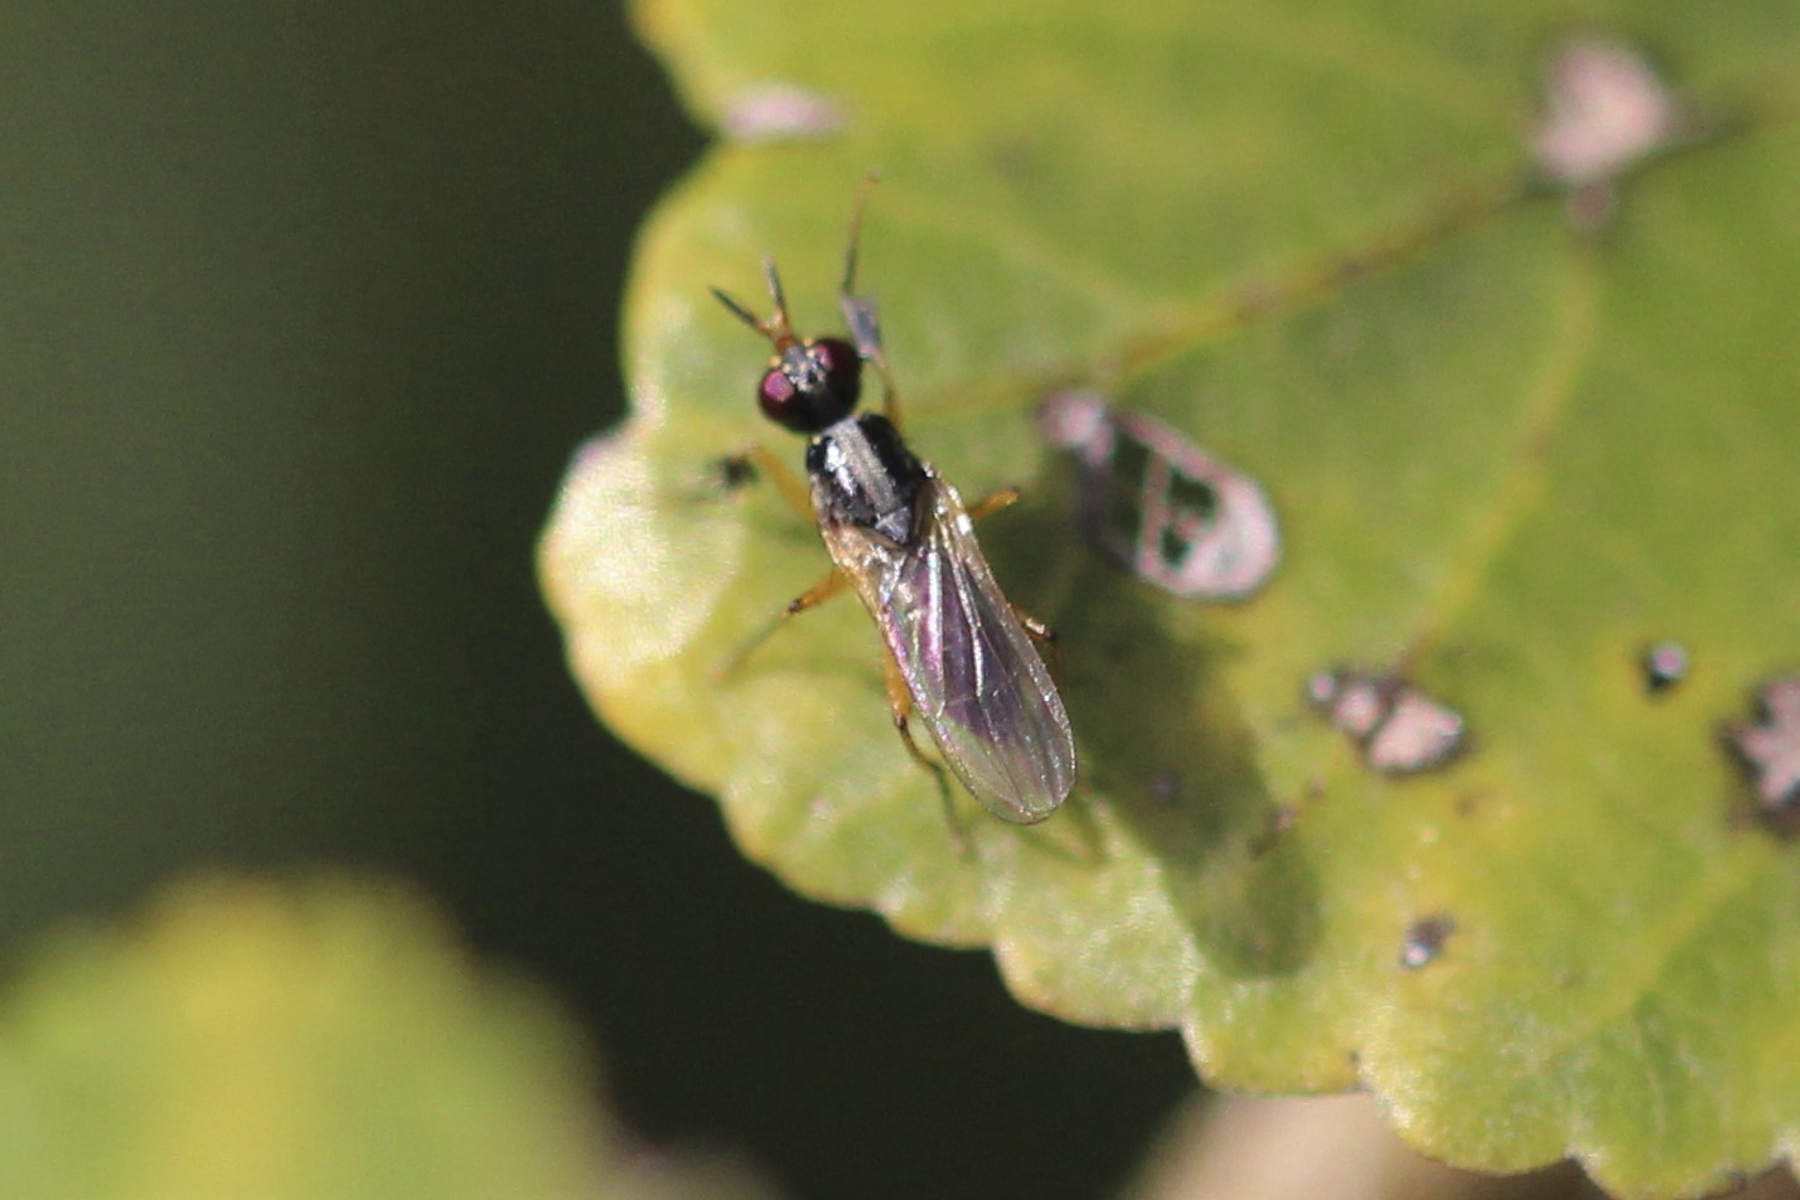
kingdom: Animalia
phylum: Arthropoda
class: Insecta
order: Diptera
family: Muscidae
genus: Anaphalantus
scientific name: Anaphalantus longicornis
